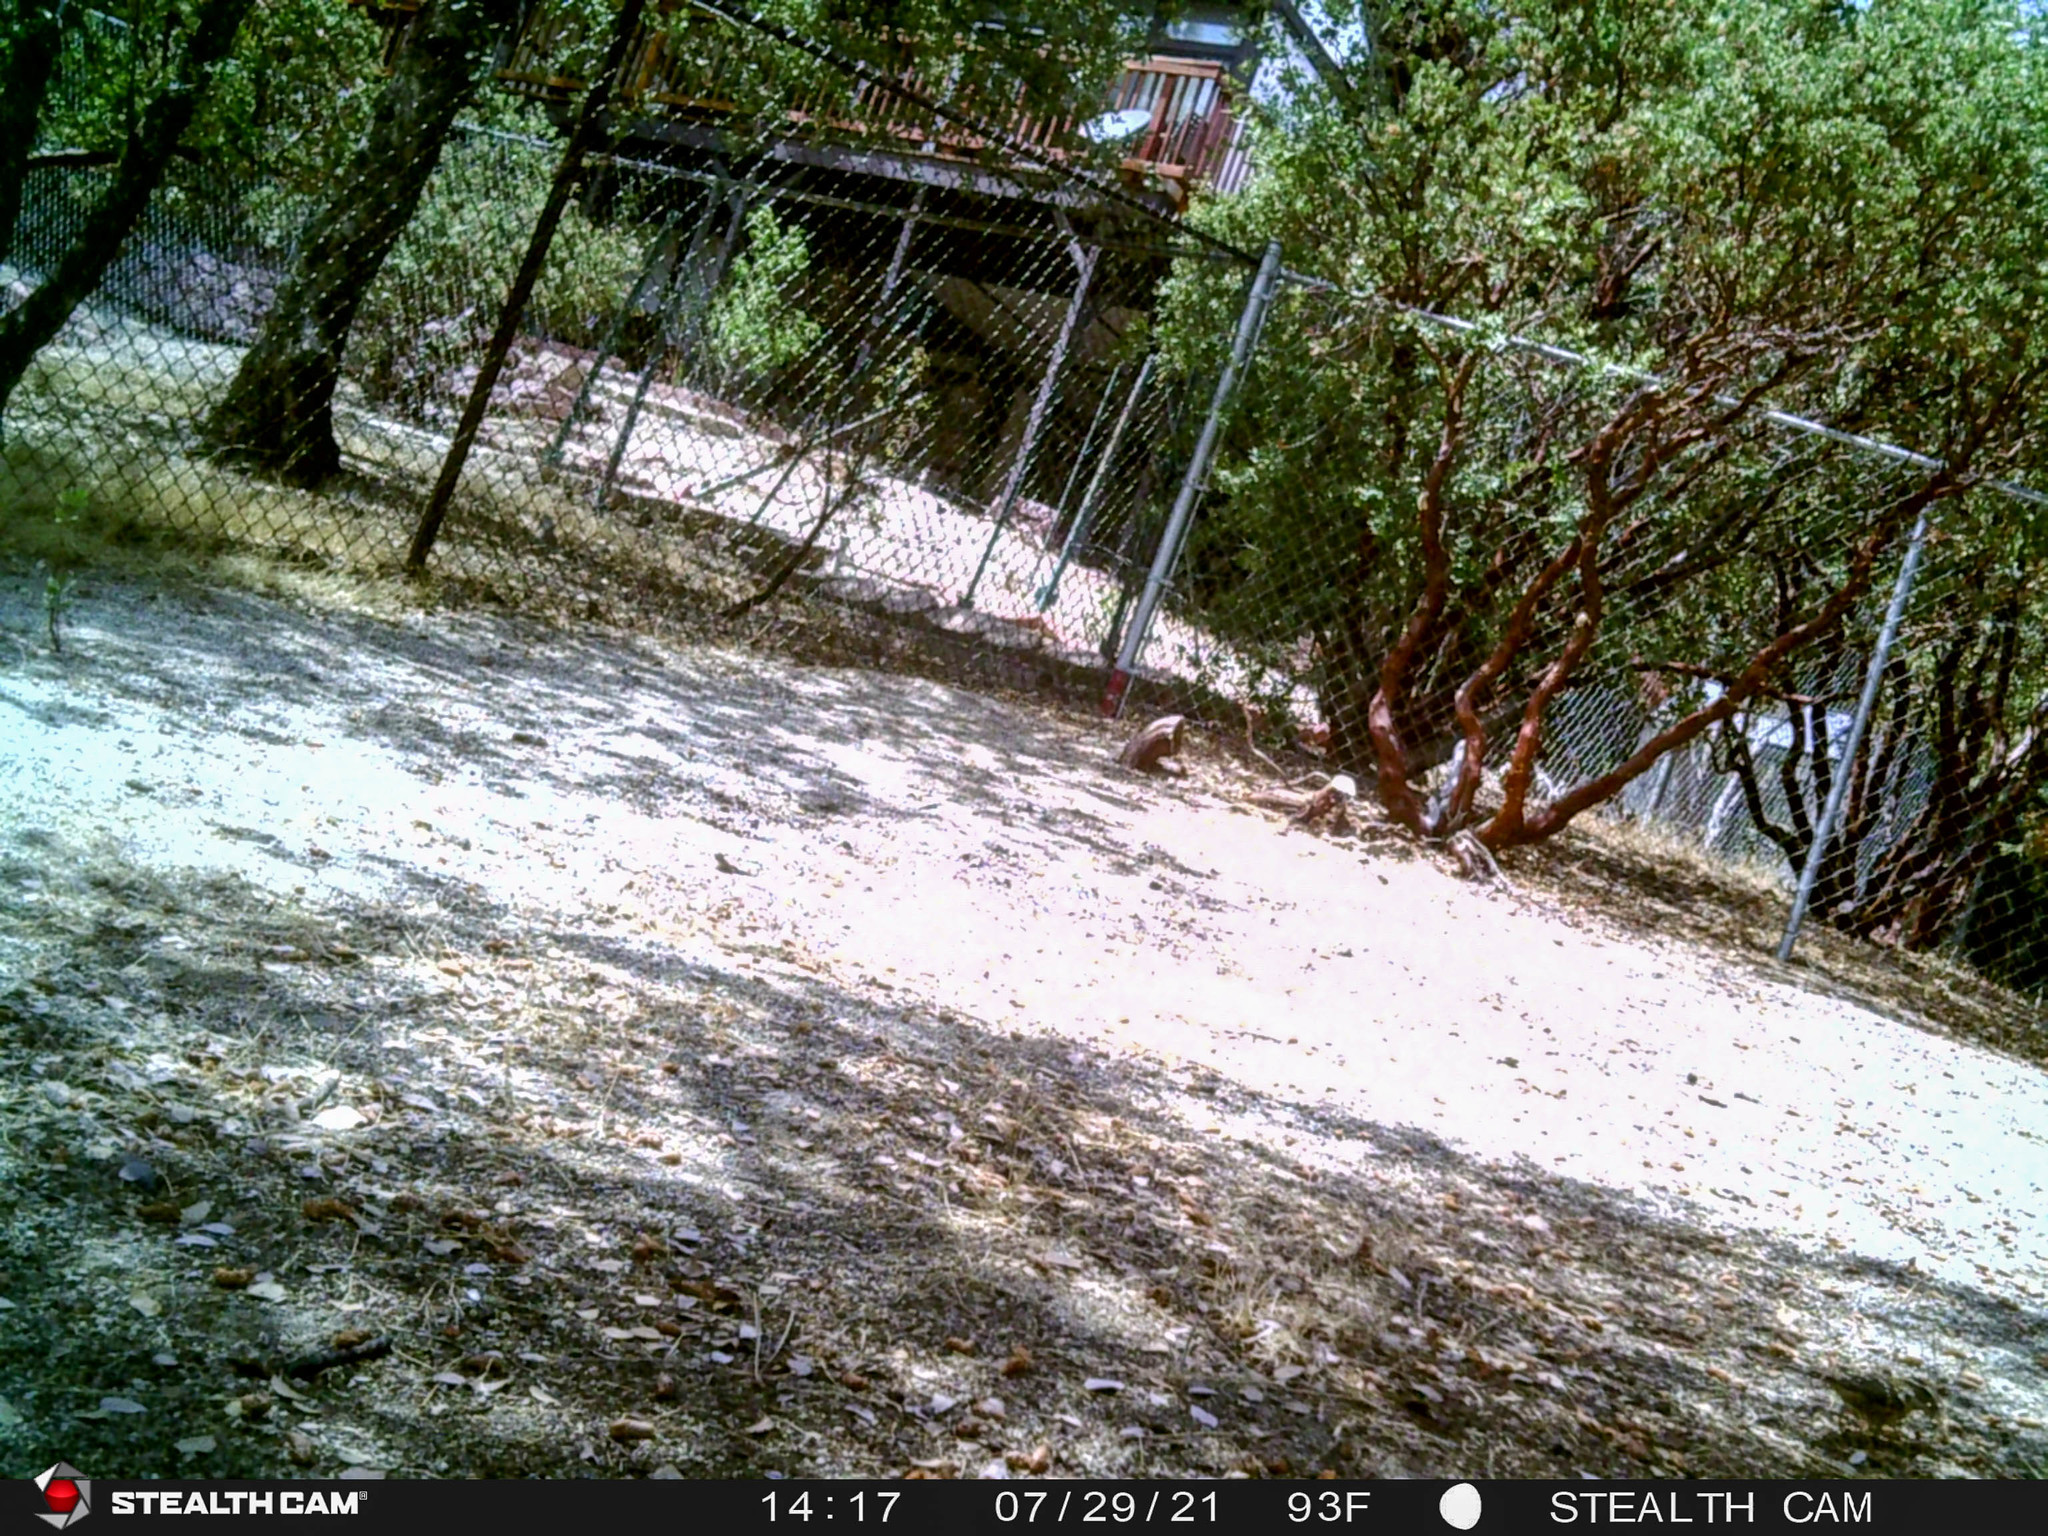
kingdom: Animalia
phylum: Chordata
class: Aves
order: Passeriformes
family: Cardinalidae
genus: Pheucticus
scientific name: Pheucticus melanocephalus
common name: Black-headed grosbeak
